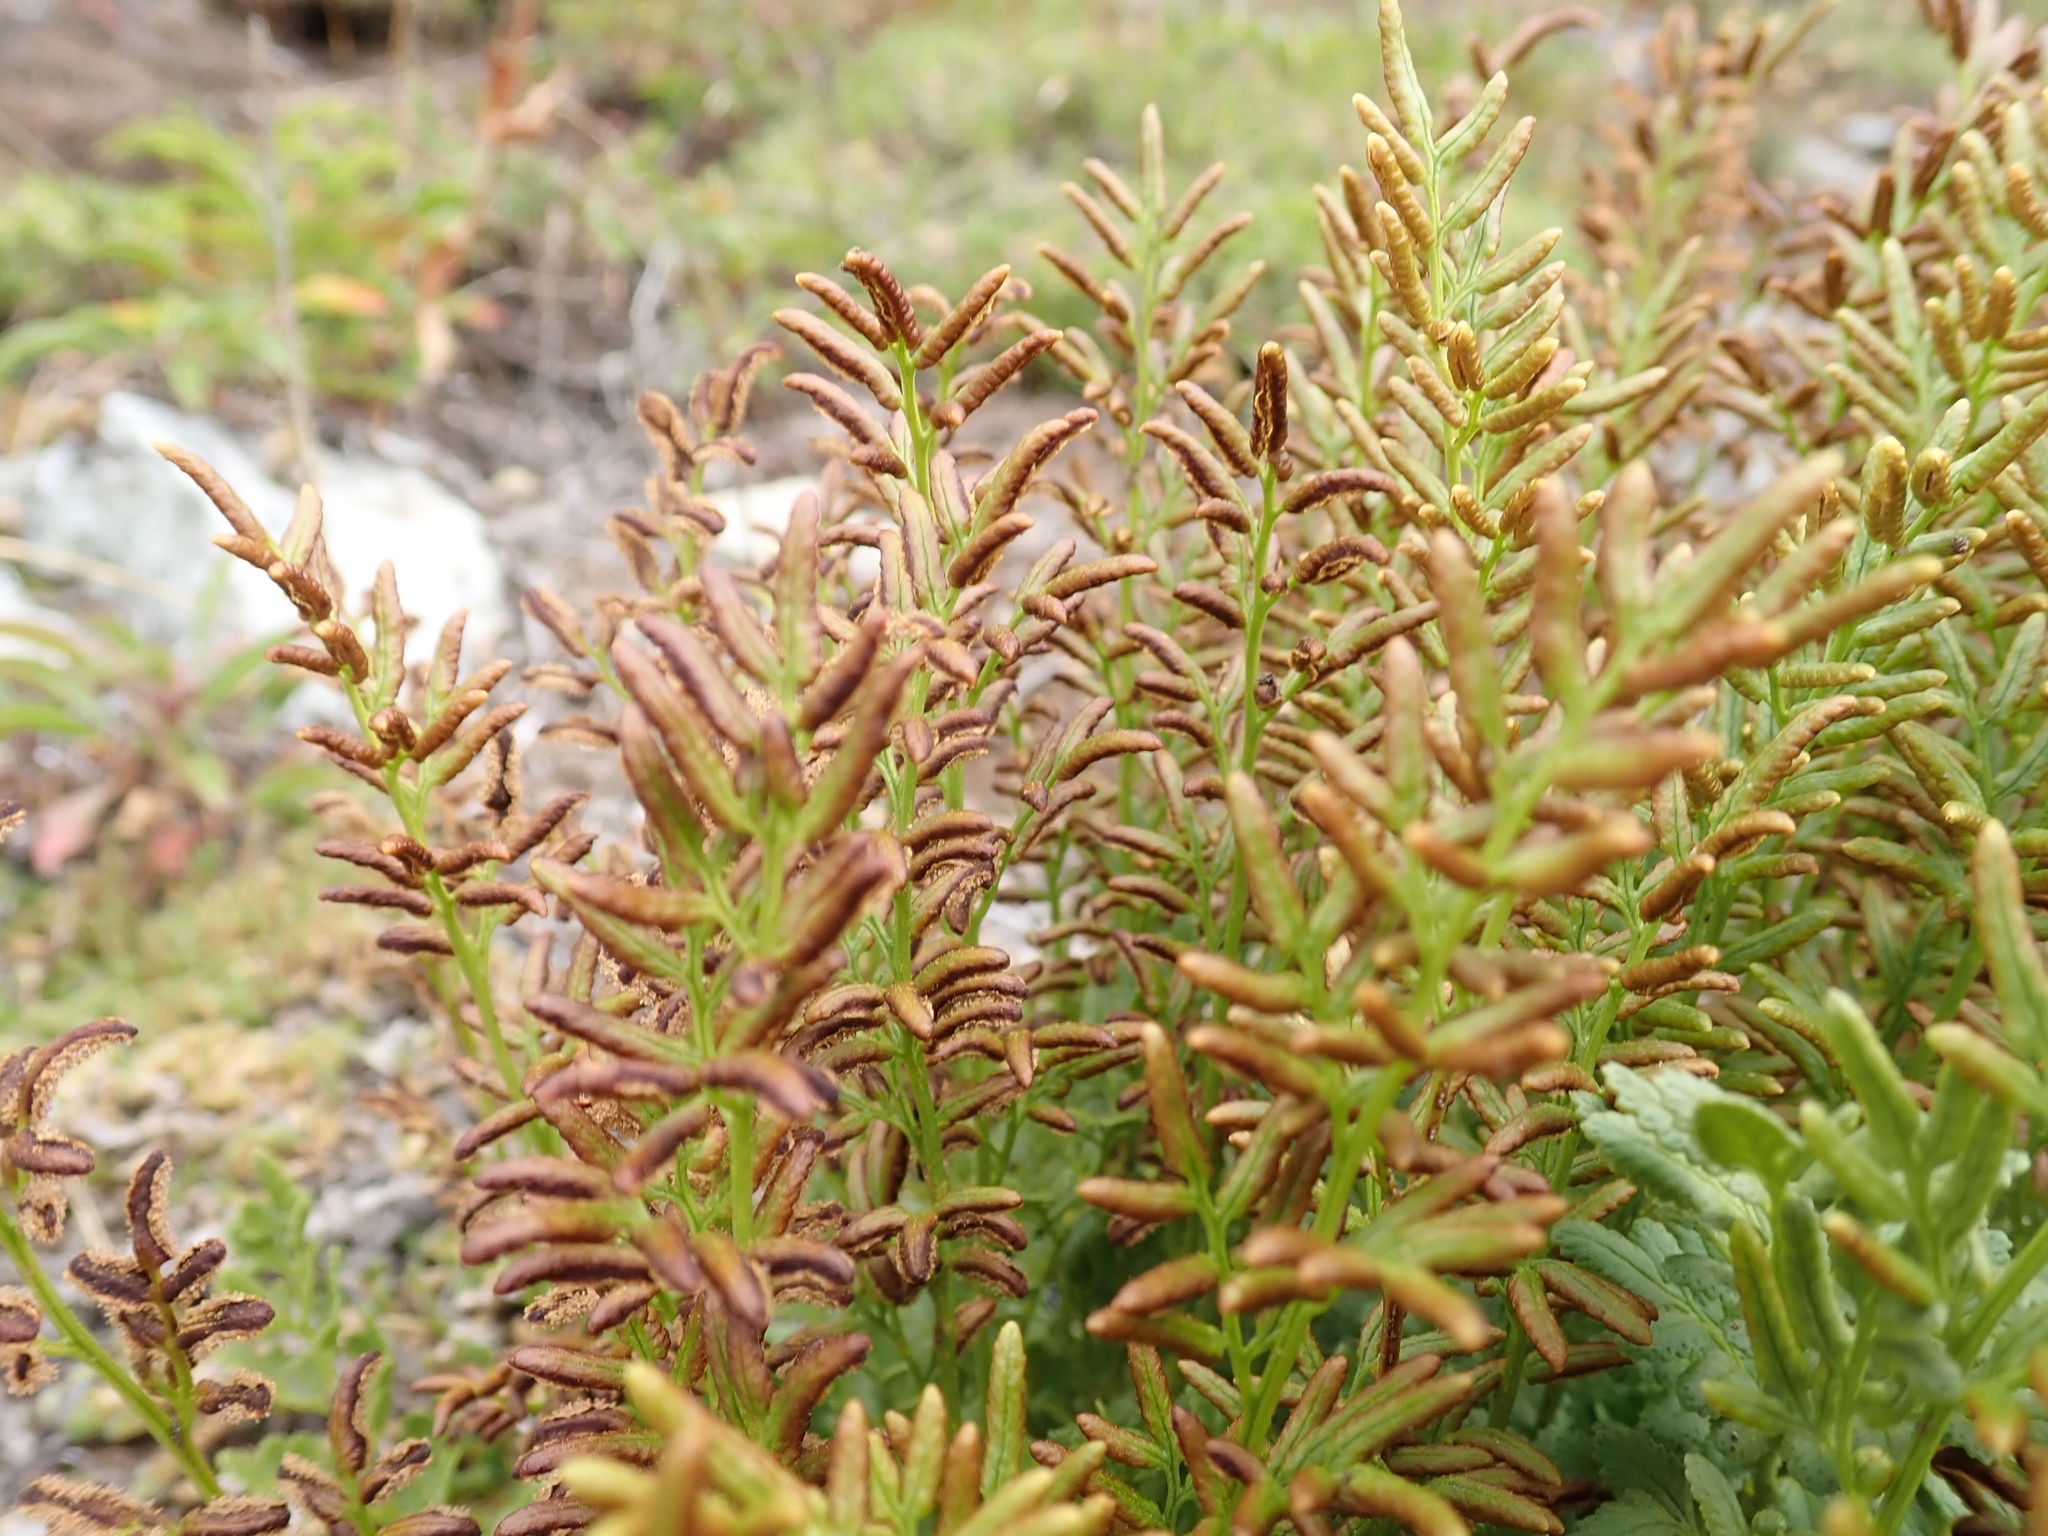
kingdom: Plantae
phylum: Tracheophyta
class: Polypodiopsida
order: Polypodiales
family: Pteridaceae
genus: Cryptogramma
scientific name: Cryptogramma acrostichoides
